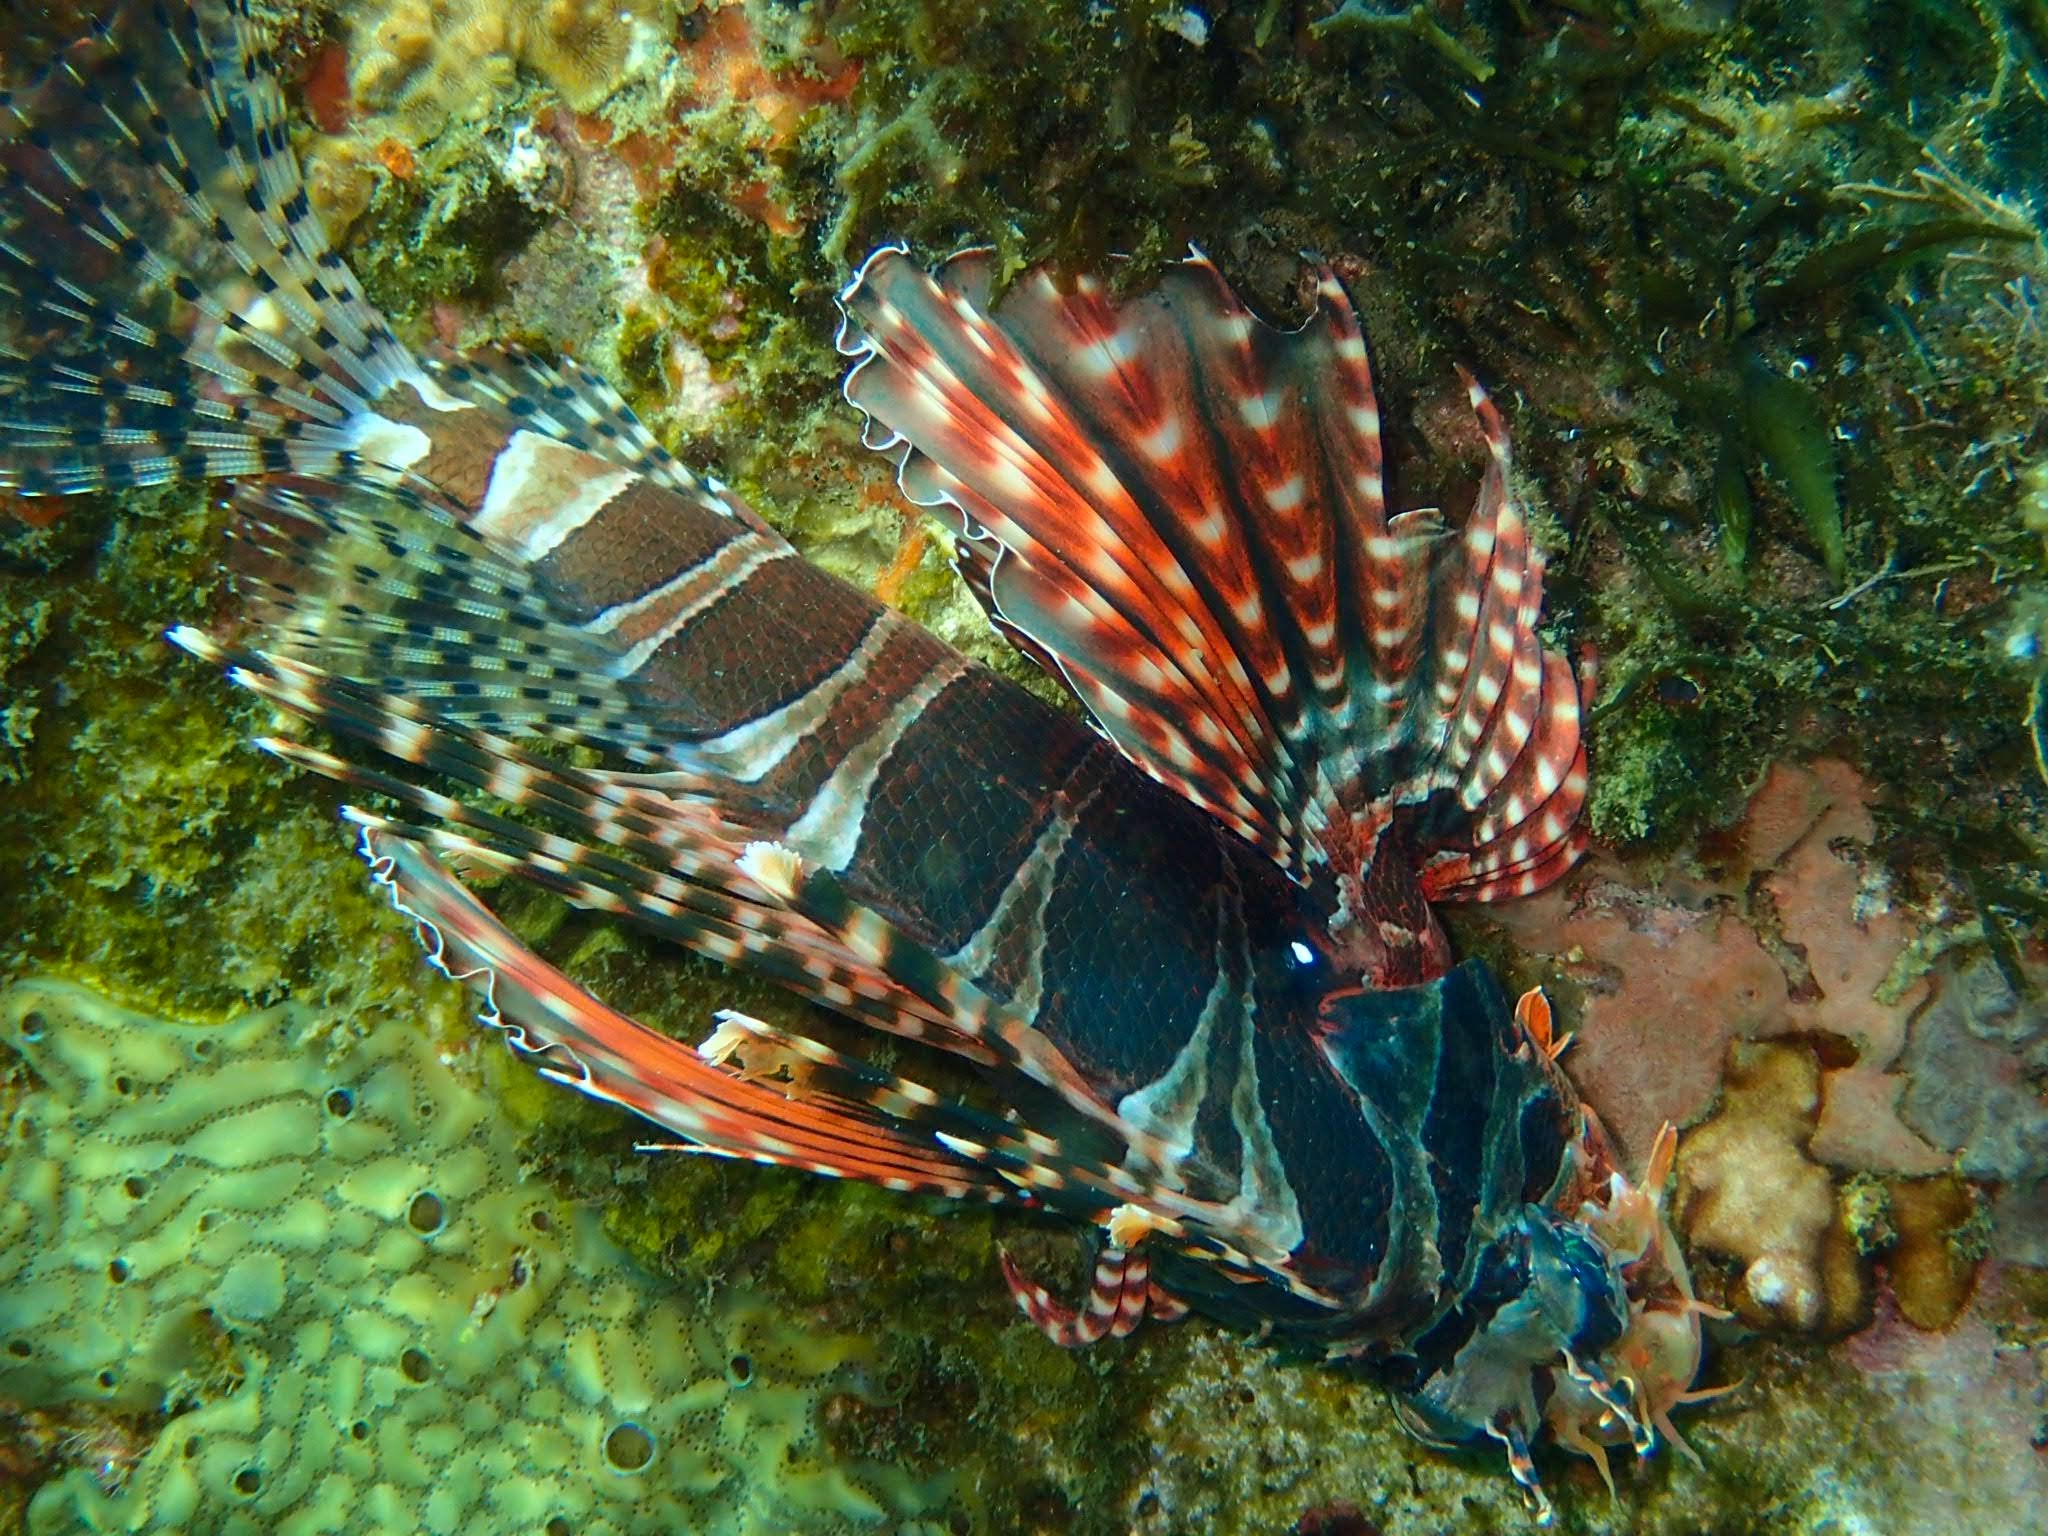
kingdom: Animalia
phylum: Chordata
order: Scorpaeniformes
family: Scorpaenidae
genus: Dendrochirus
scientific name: Dendrochirus zebra
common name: Zebra lionfish
